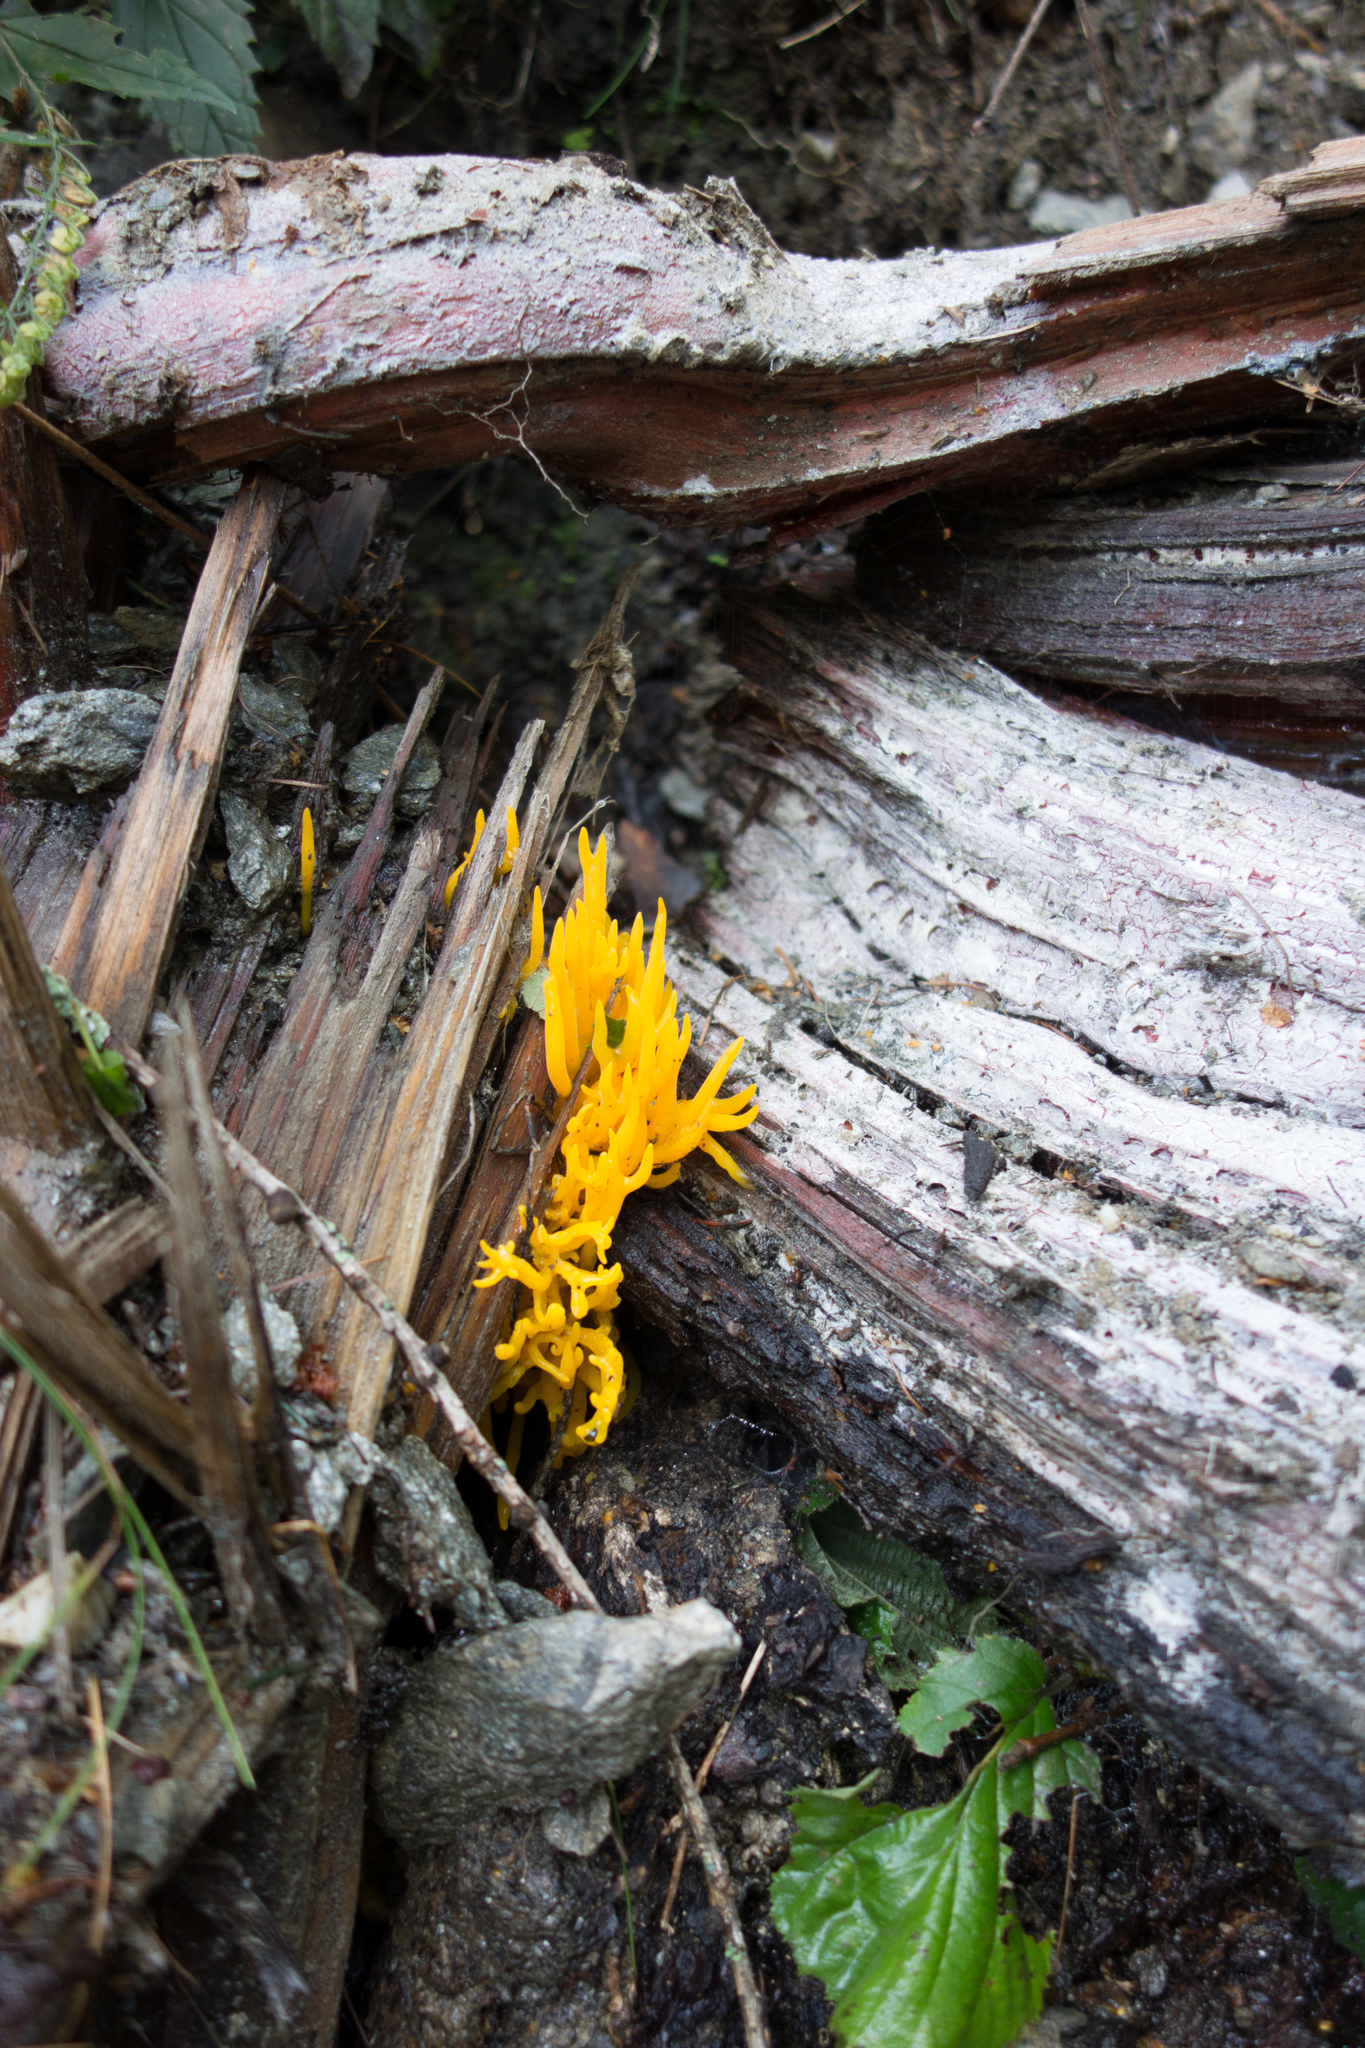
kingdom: Fungi
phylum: Basidiomycota
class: Dacrymycetes
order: Dacrymycetales
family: Dacrymycetaceae
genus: Calocera
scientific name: Calocera viscosa
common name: Yellow stagshorn
